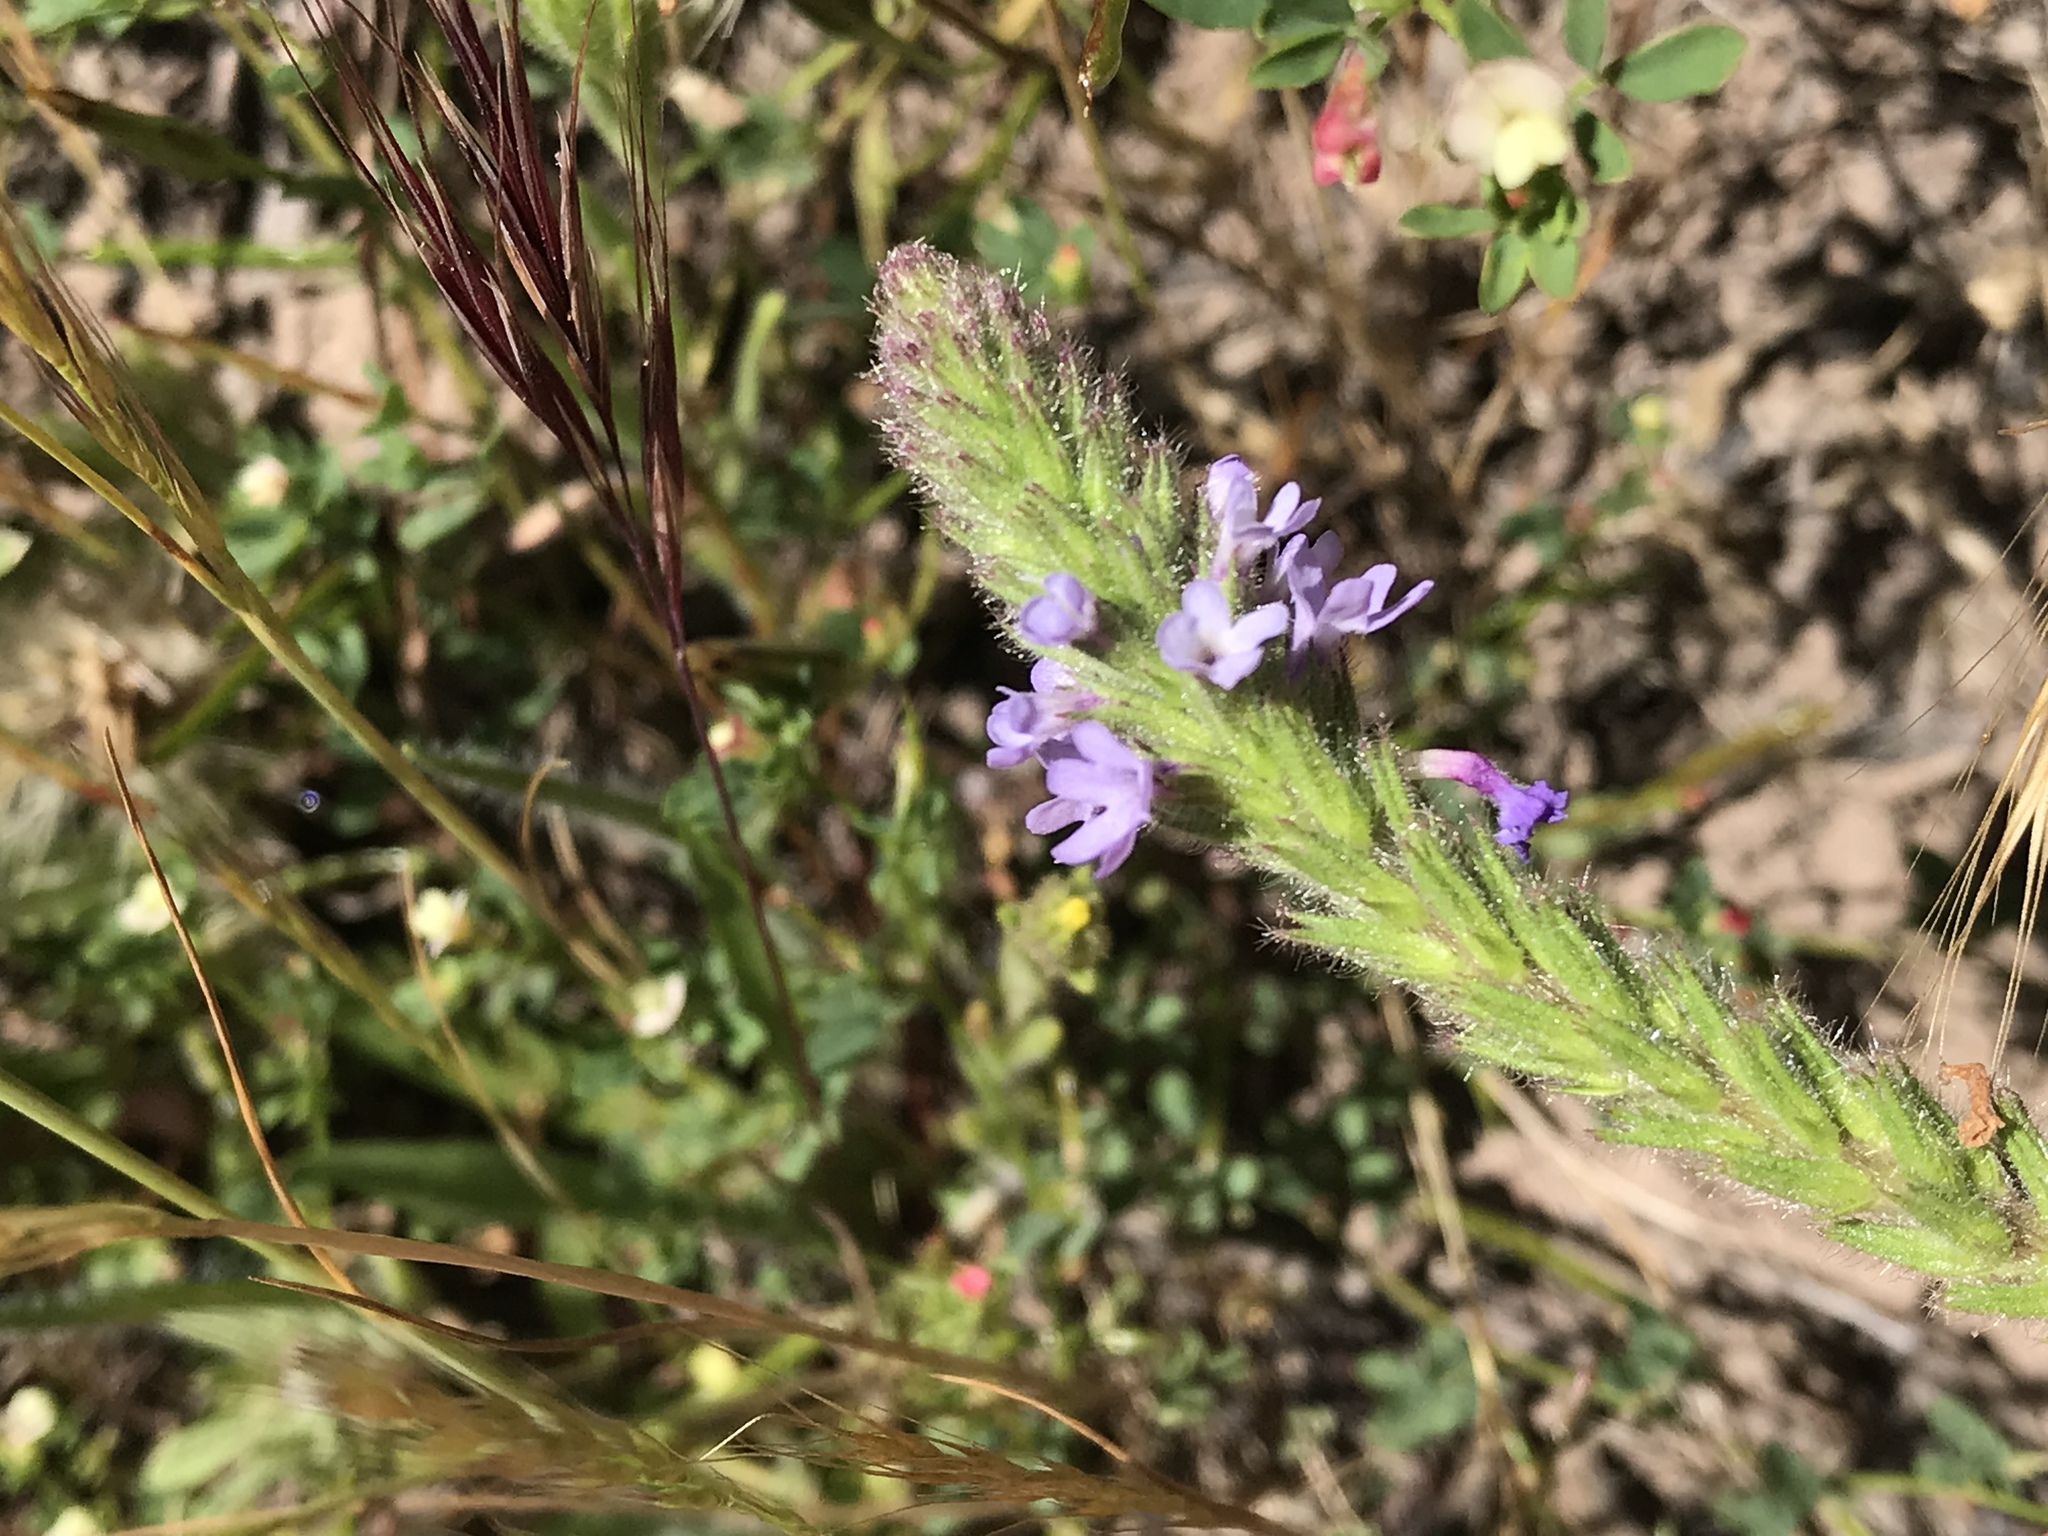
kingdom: Plantae
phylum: Tracheophyta
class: Magnoliopsida
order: Lamiales
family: Verbenaceae
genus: Verbena
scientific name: Verbena lasiostachys
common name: Vervain
